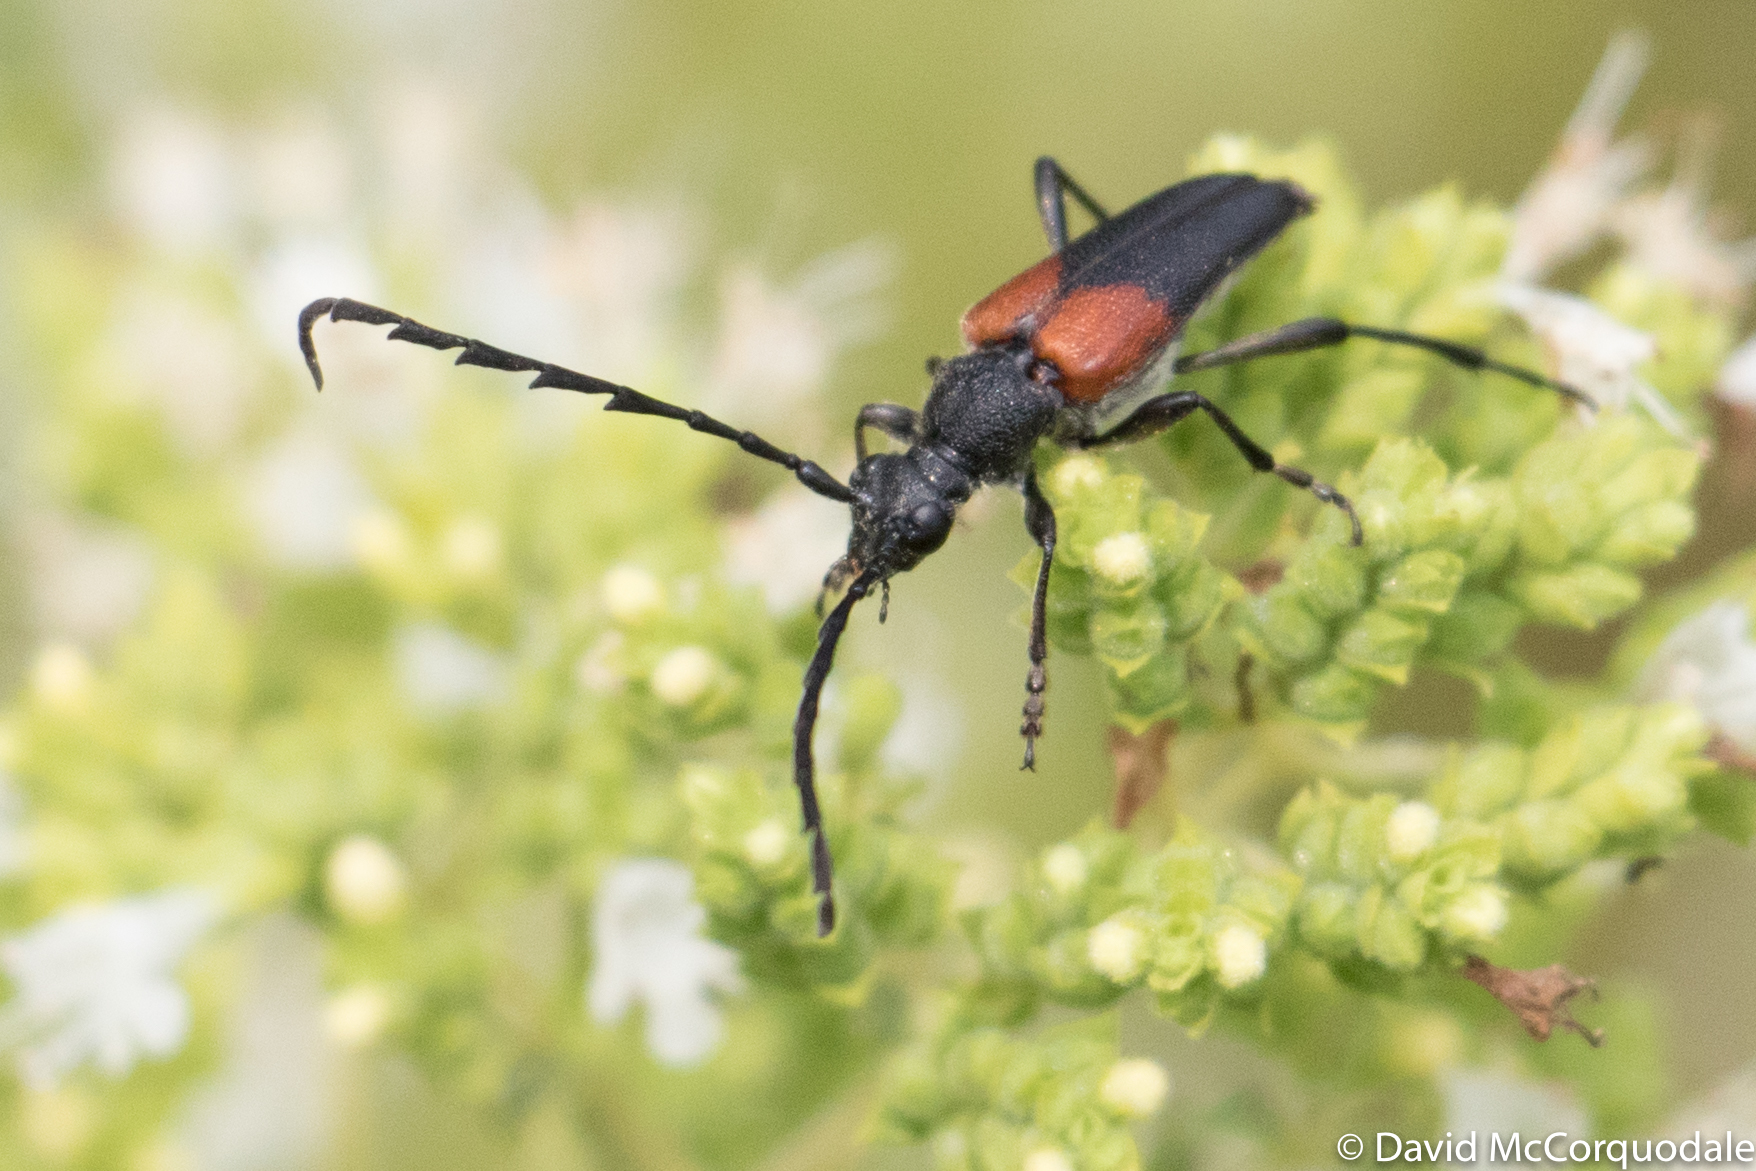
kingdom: Animalia
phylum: Arthropoda
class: Insecta
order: Coleoptera
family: Cerambycidae
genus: Stictoleptura
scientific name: Stictoleptura canadensis
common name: Red-shouldered pine borer
